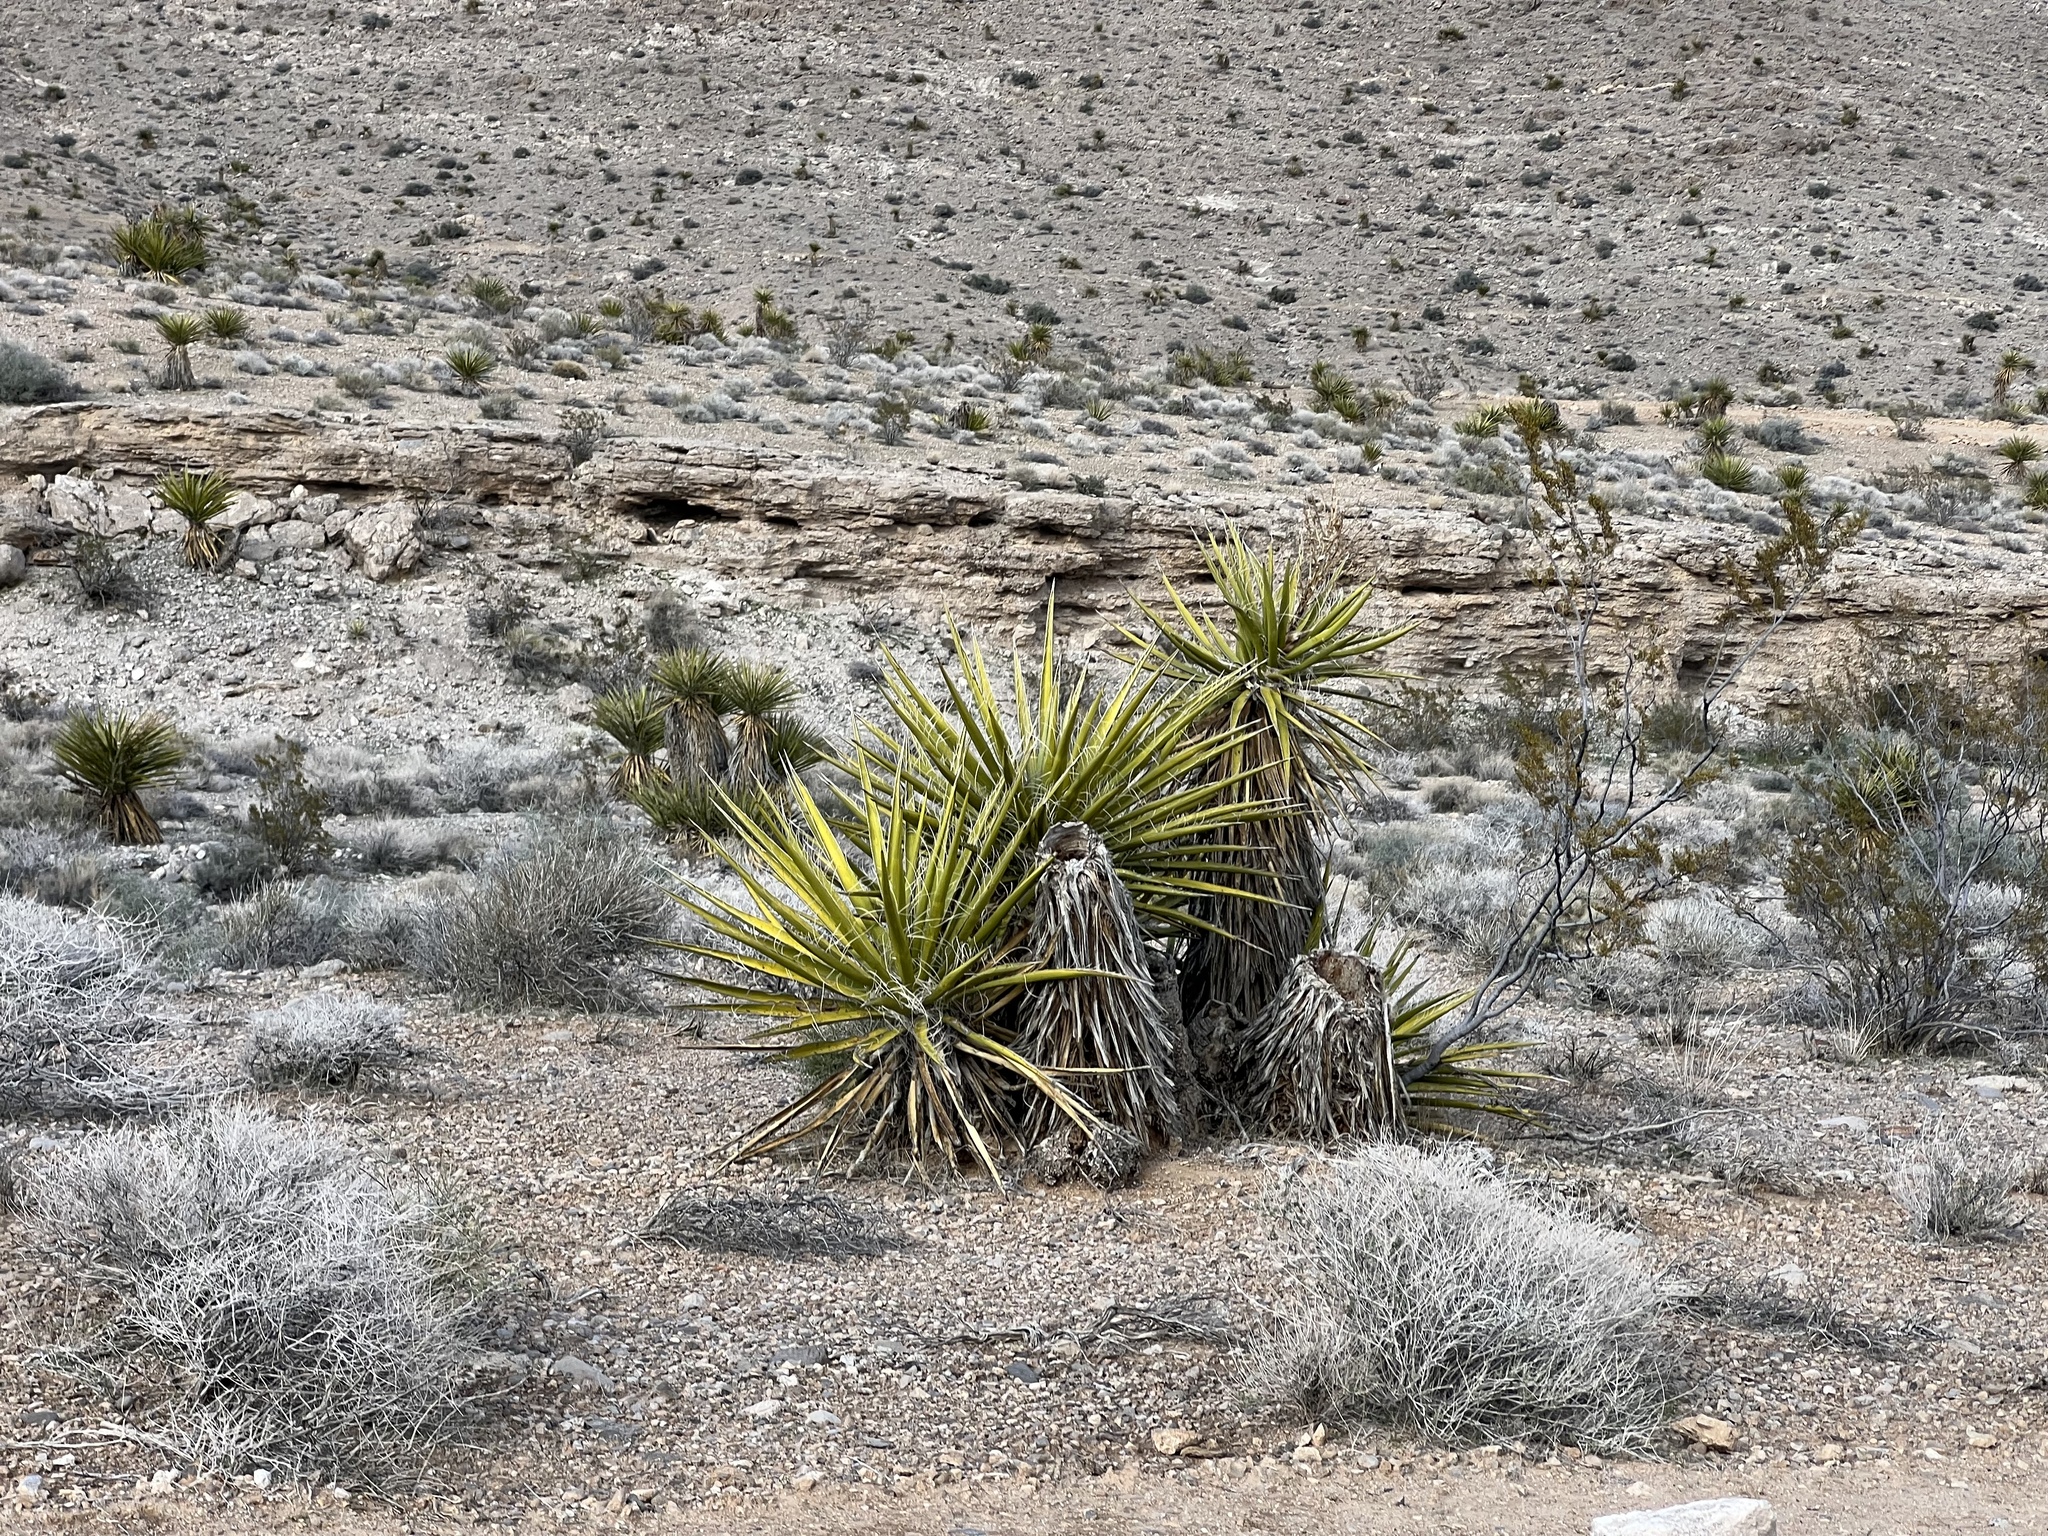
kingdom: Plantae
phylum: Tracheophyta
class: Liliopsida
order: Asparagales
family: Asparagaceae
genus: Yucca
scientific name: Yucca schidigera
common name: Mojave yucca
